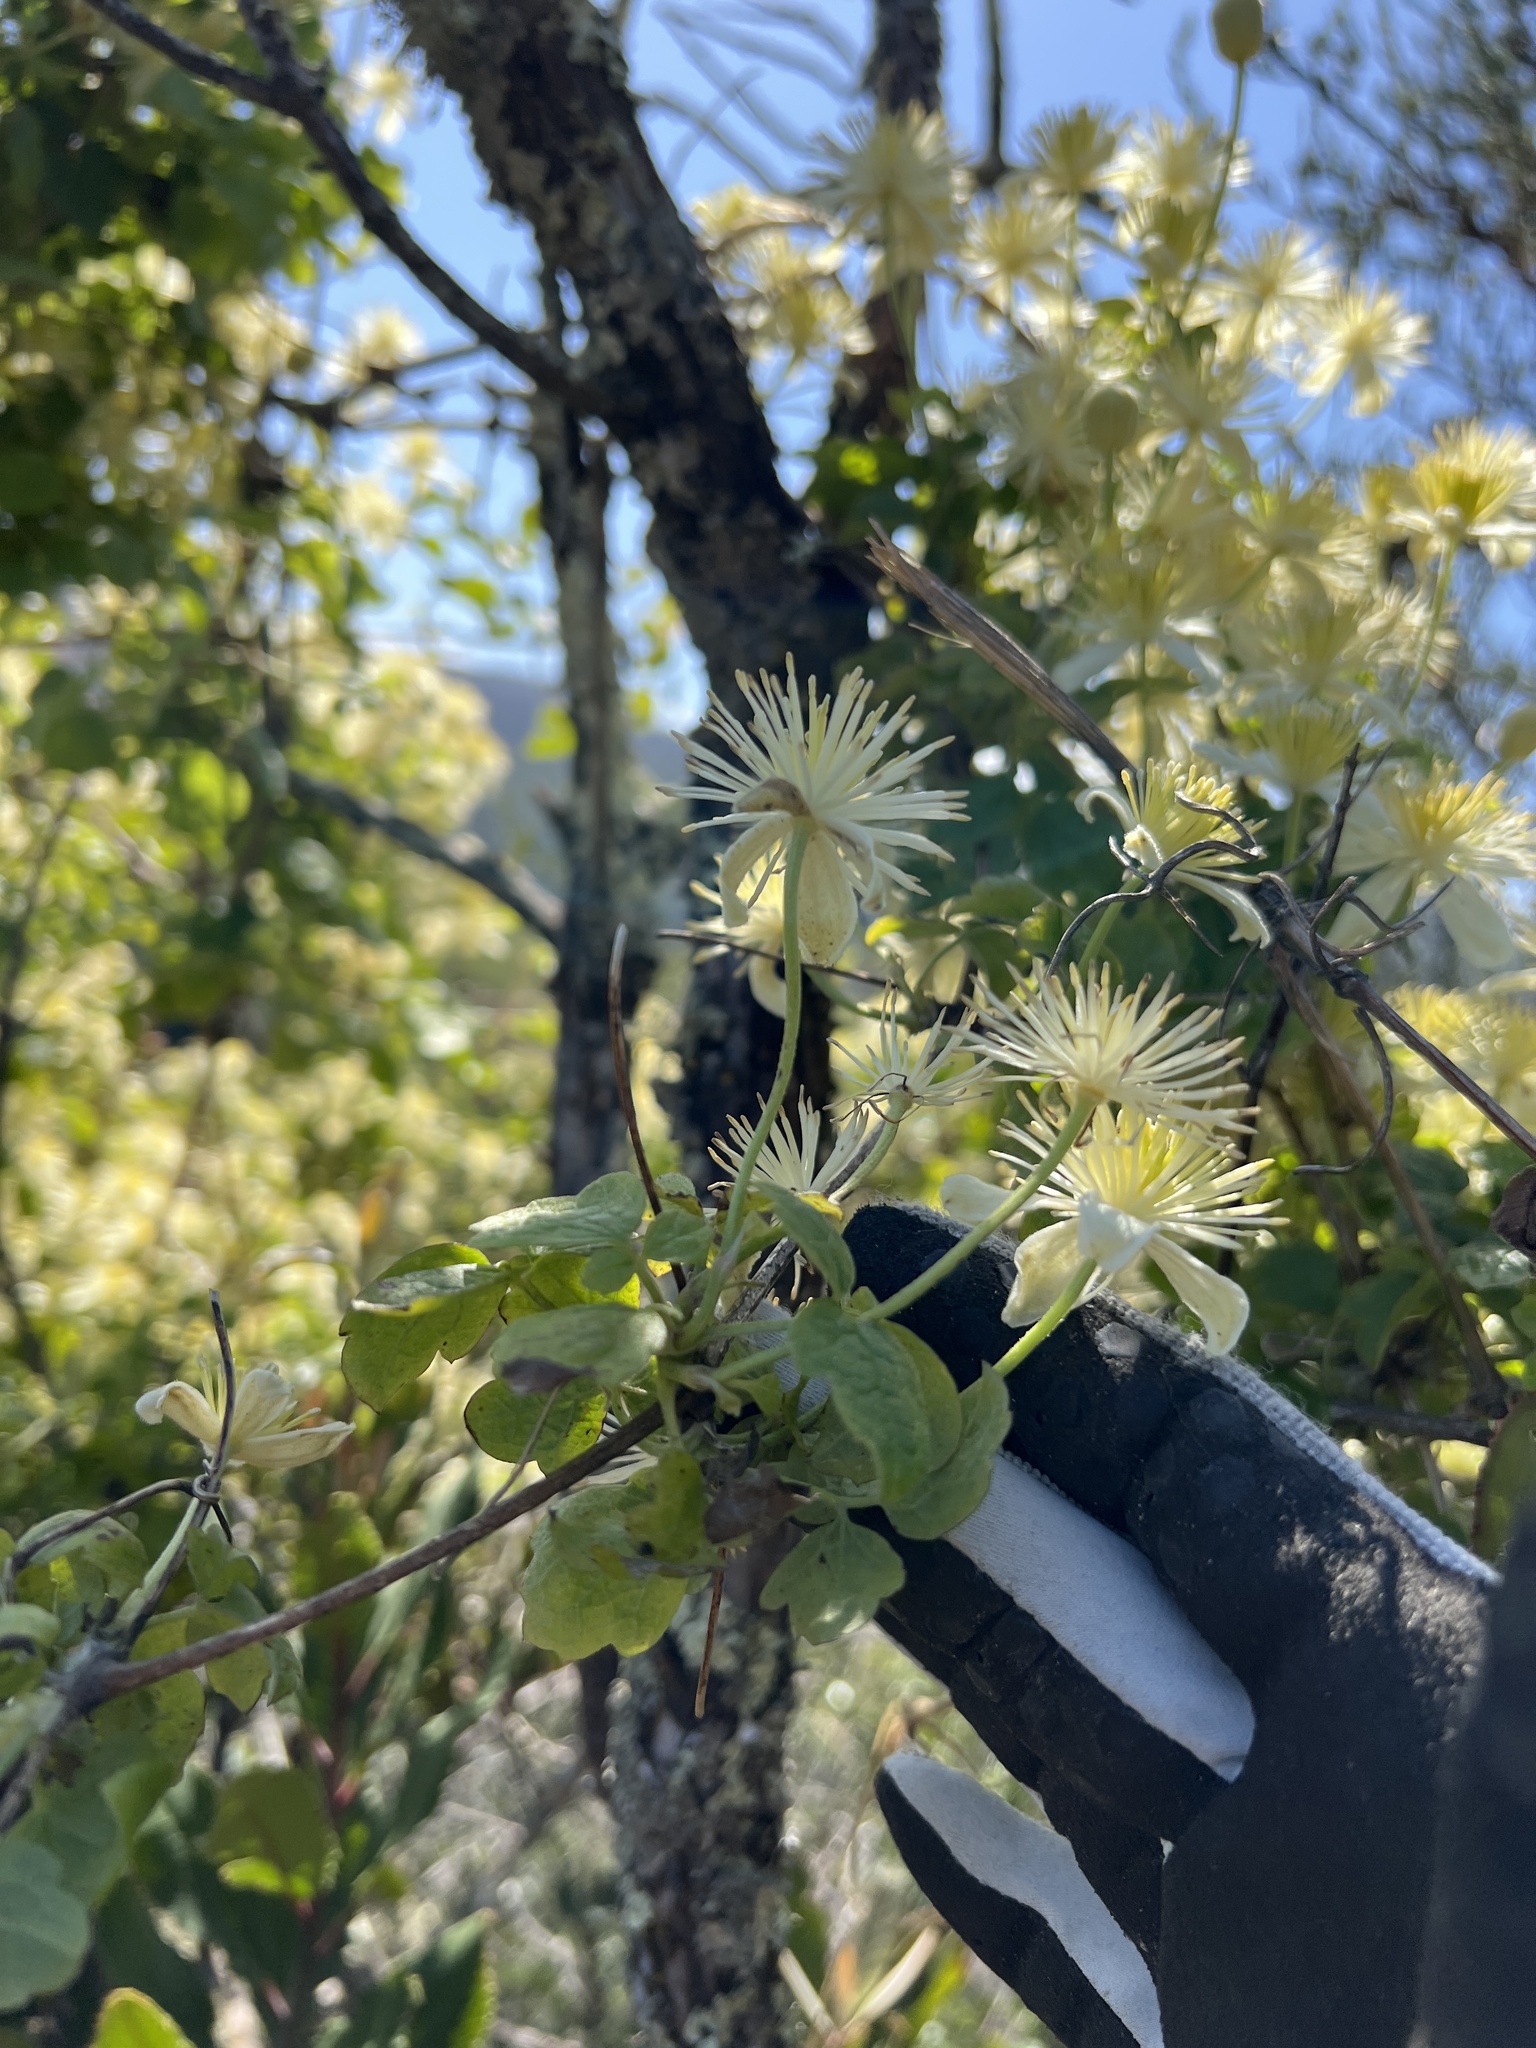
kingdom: Plantae
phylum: Tracheophyta
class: Magnoliopsida
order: Ranunculales
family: Ranunculaceae
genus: Clematis
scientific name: Clematis lasiantha
